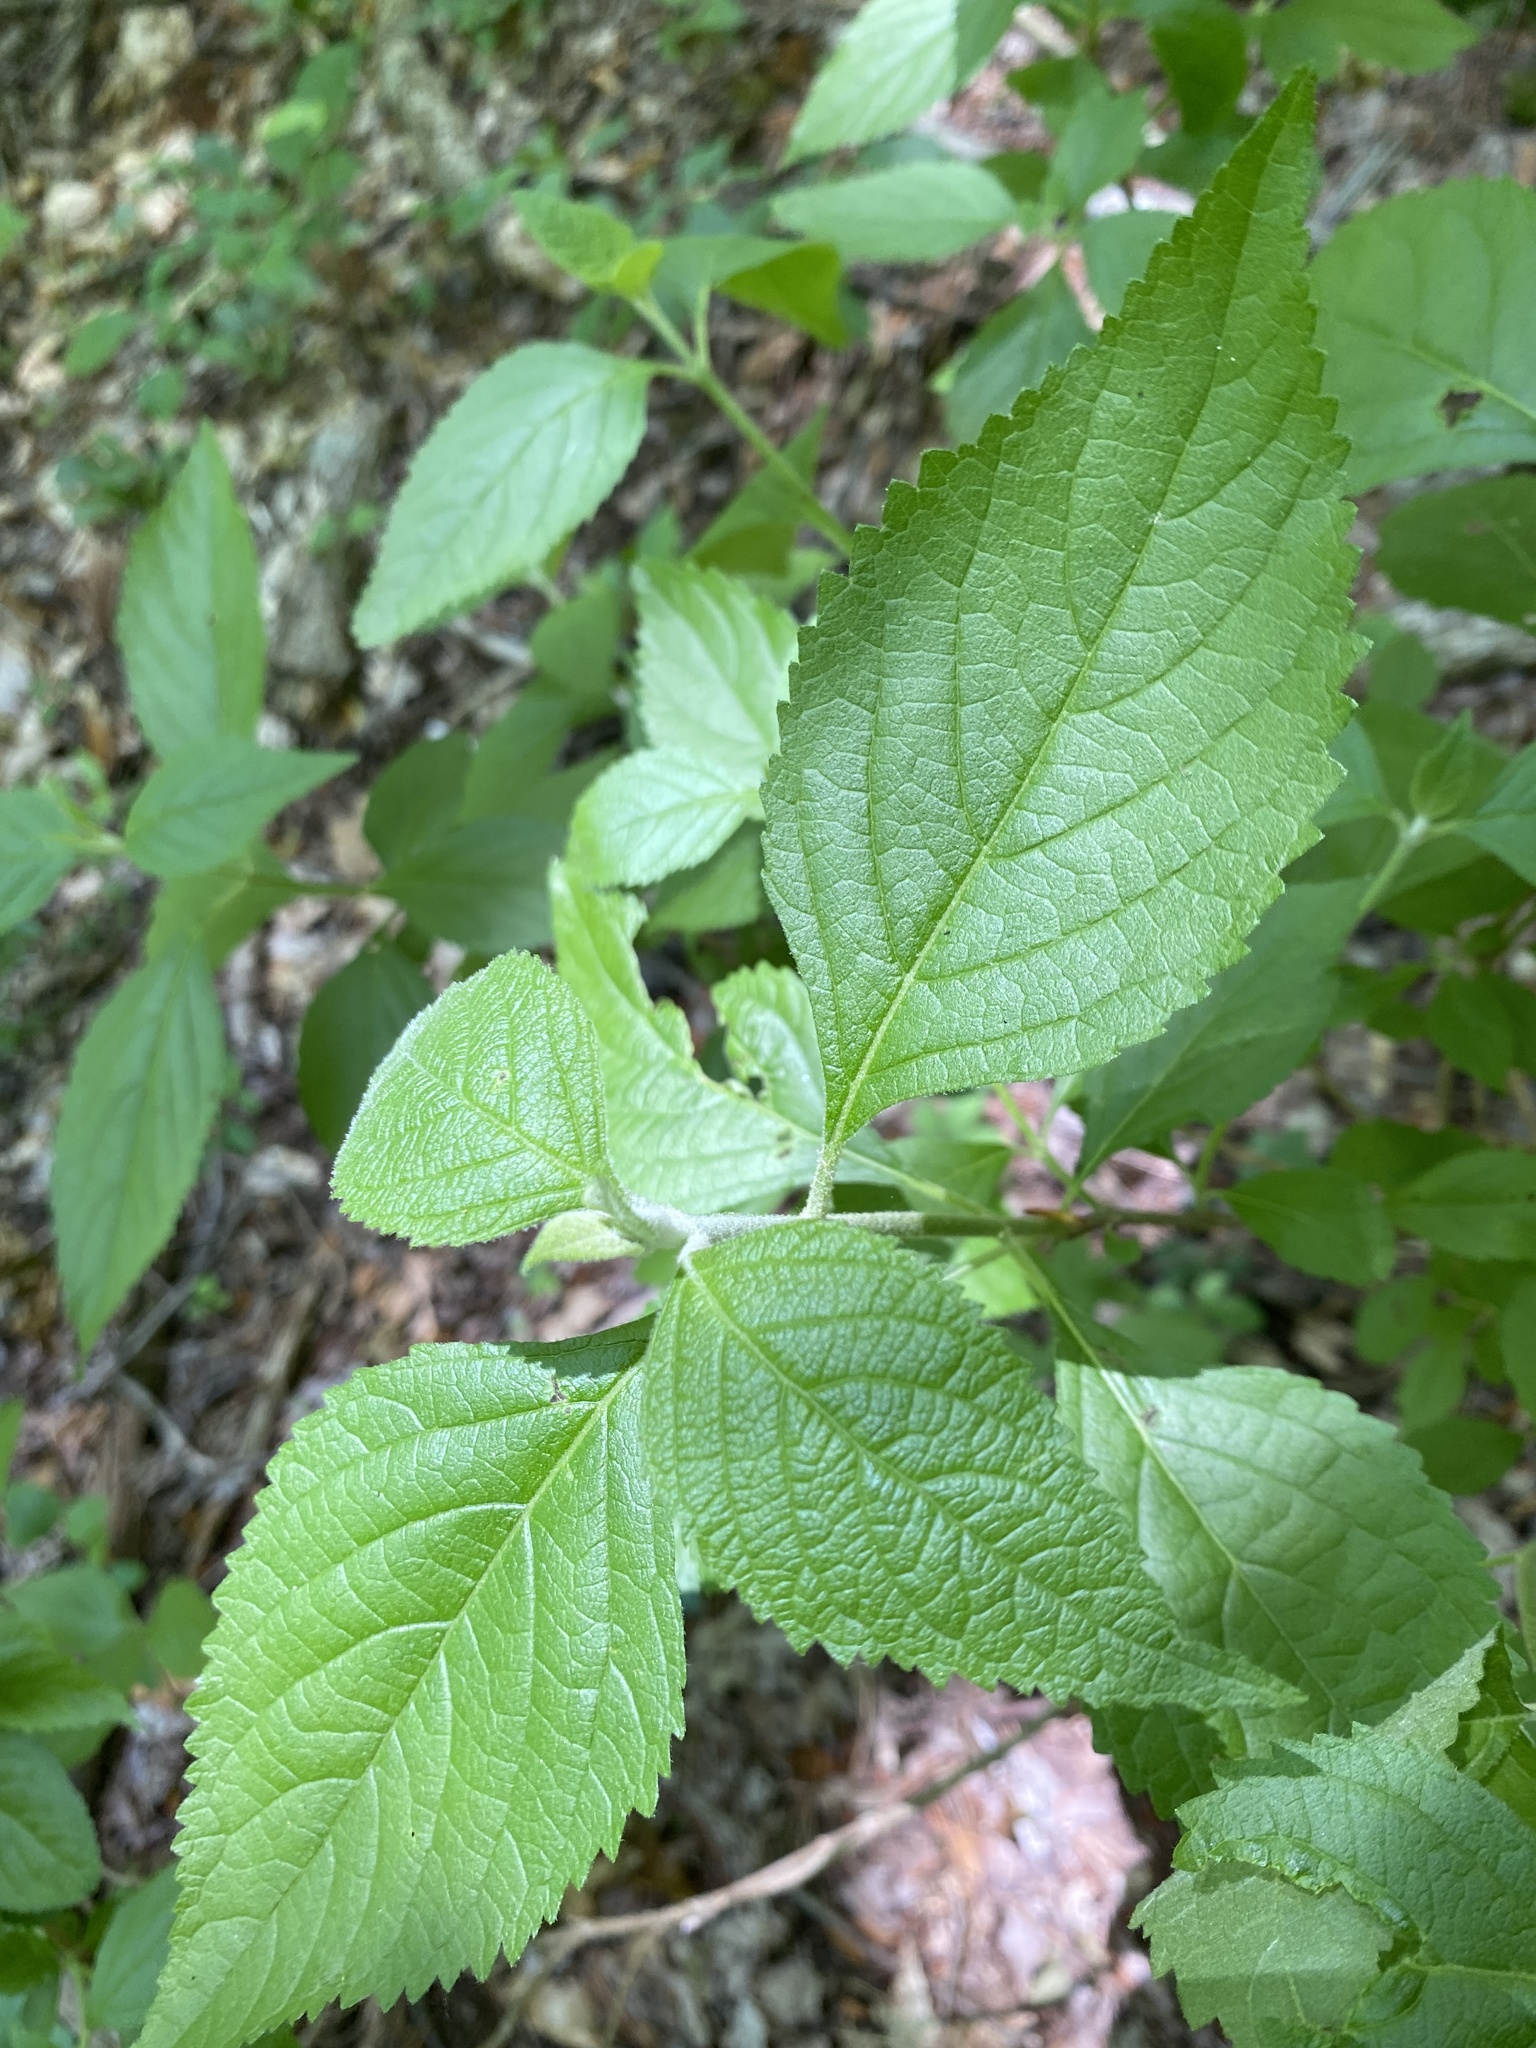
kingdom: Plantae
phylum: Tracheophyta
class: Magnoliopsida
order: Lamiales
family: Lamiaceae
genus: Callicarpa
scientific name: Callicarpa americana
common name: American beautyberry
